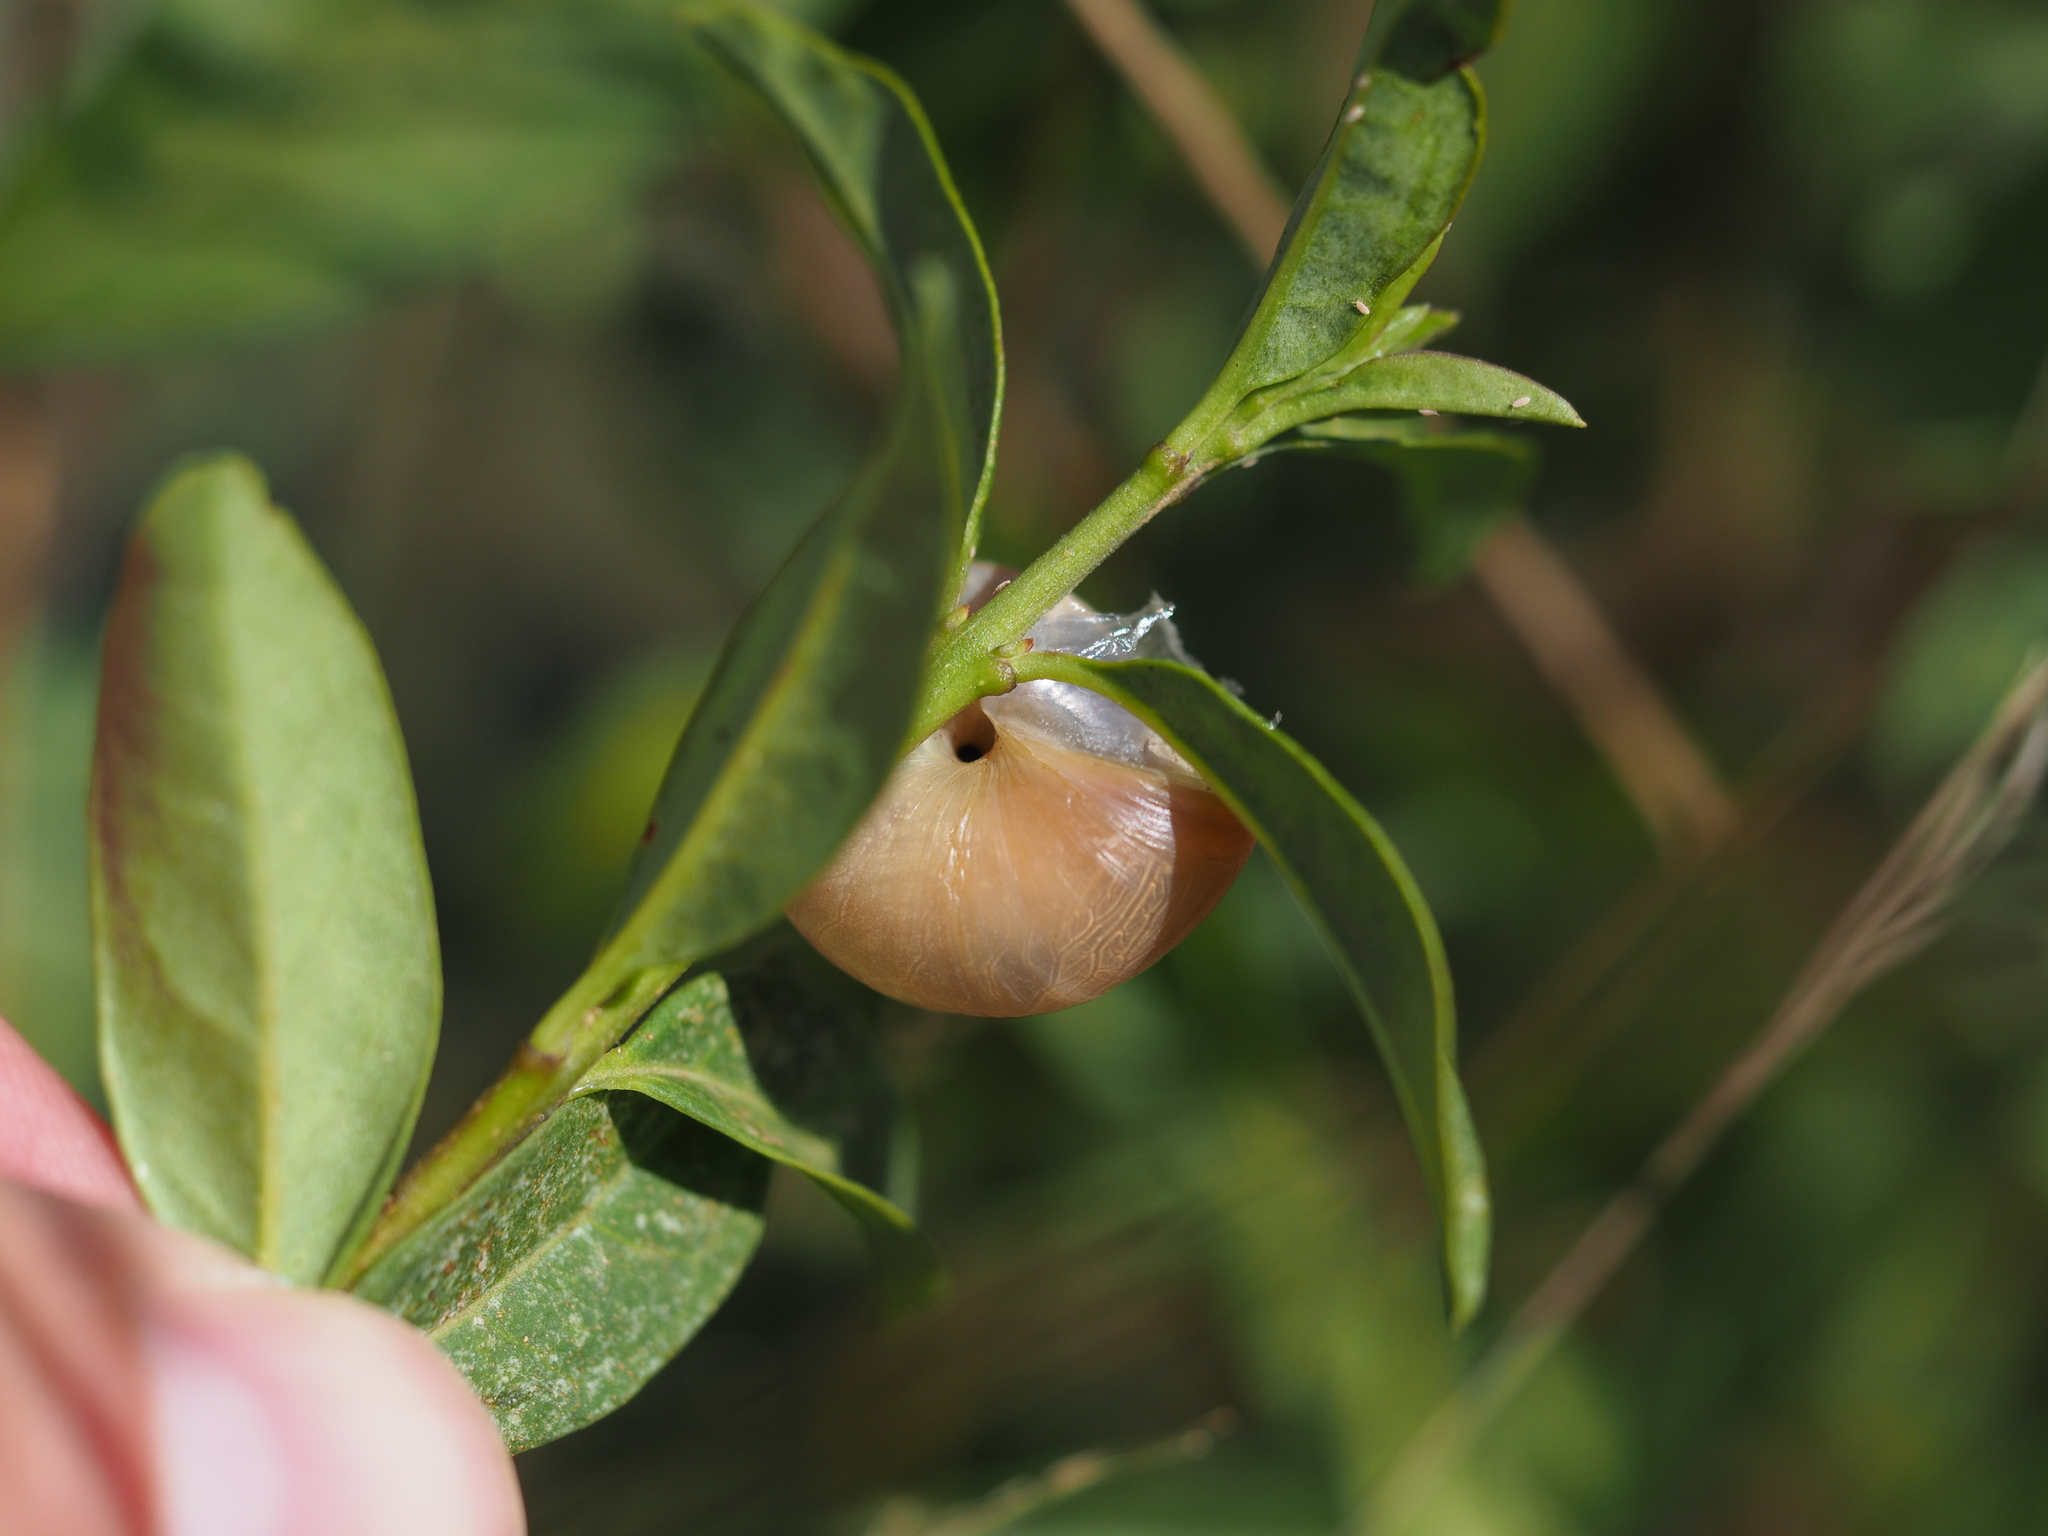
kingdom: Animalia
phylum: Mollusca
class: Gastropoda
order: Stylommatophora
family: Hygromiidae
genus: Monacha
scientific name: Monacha cartusiana
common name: Carthusian snail
